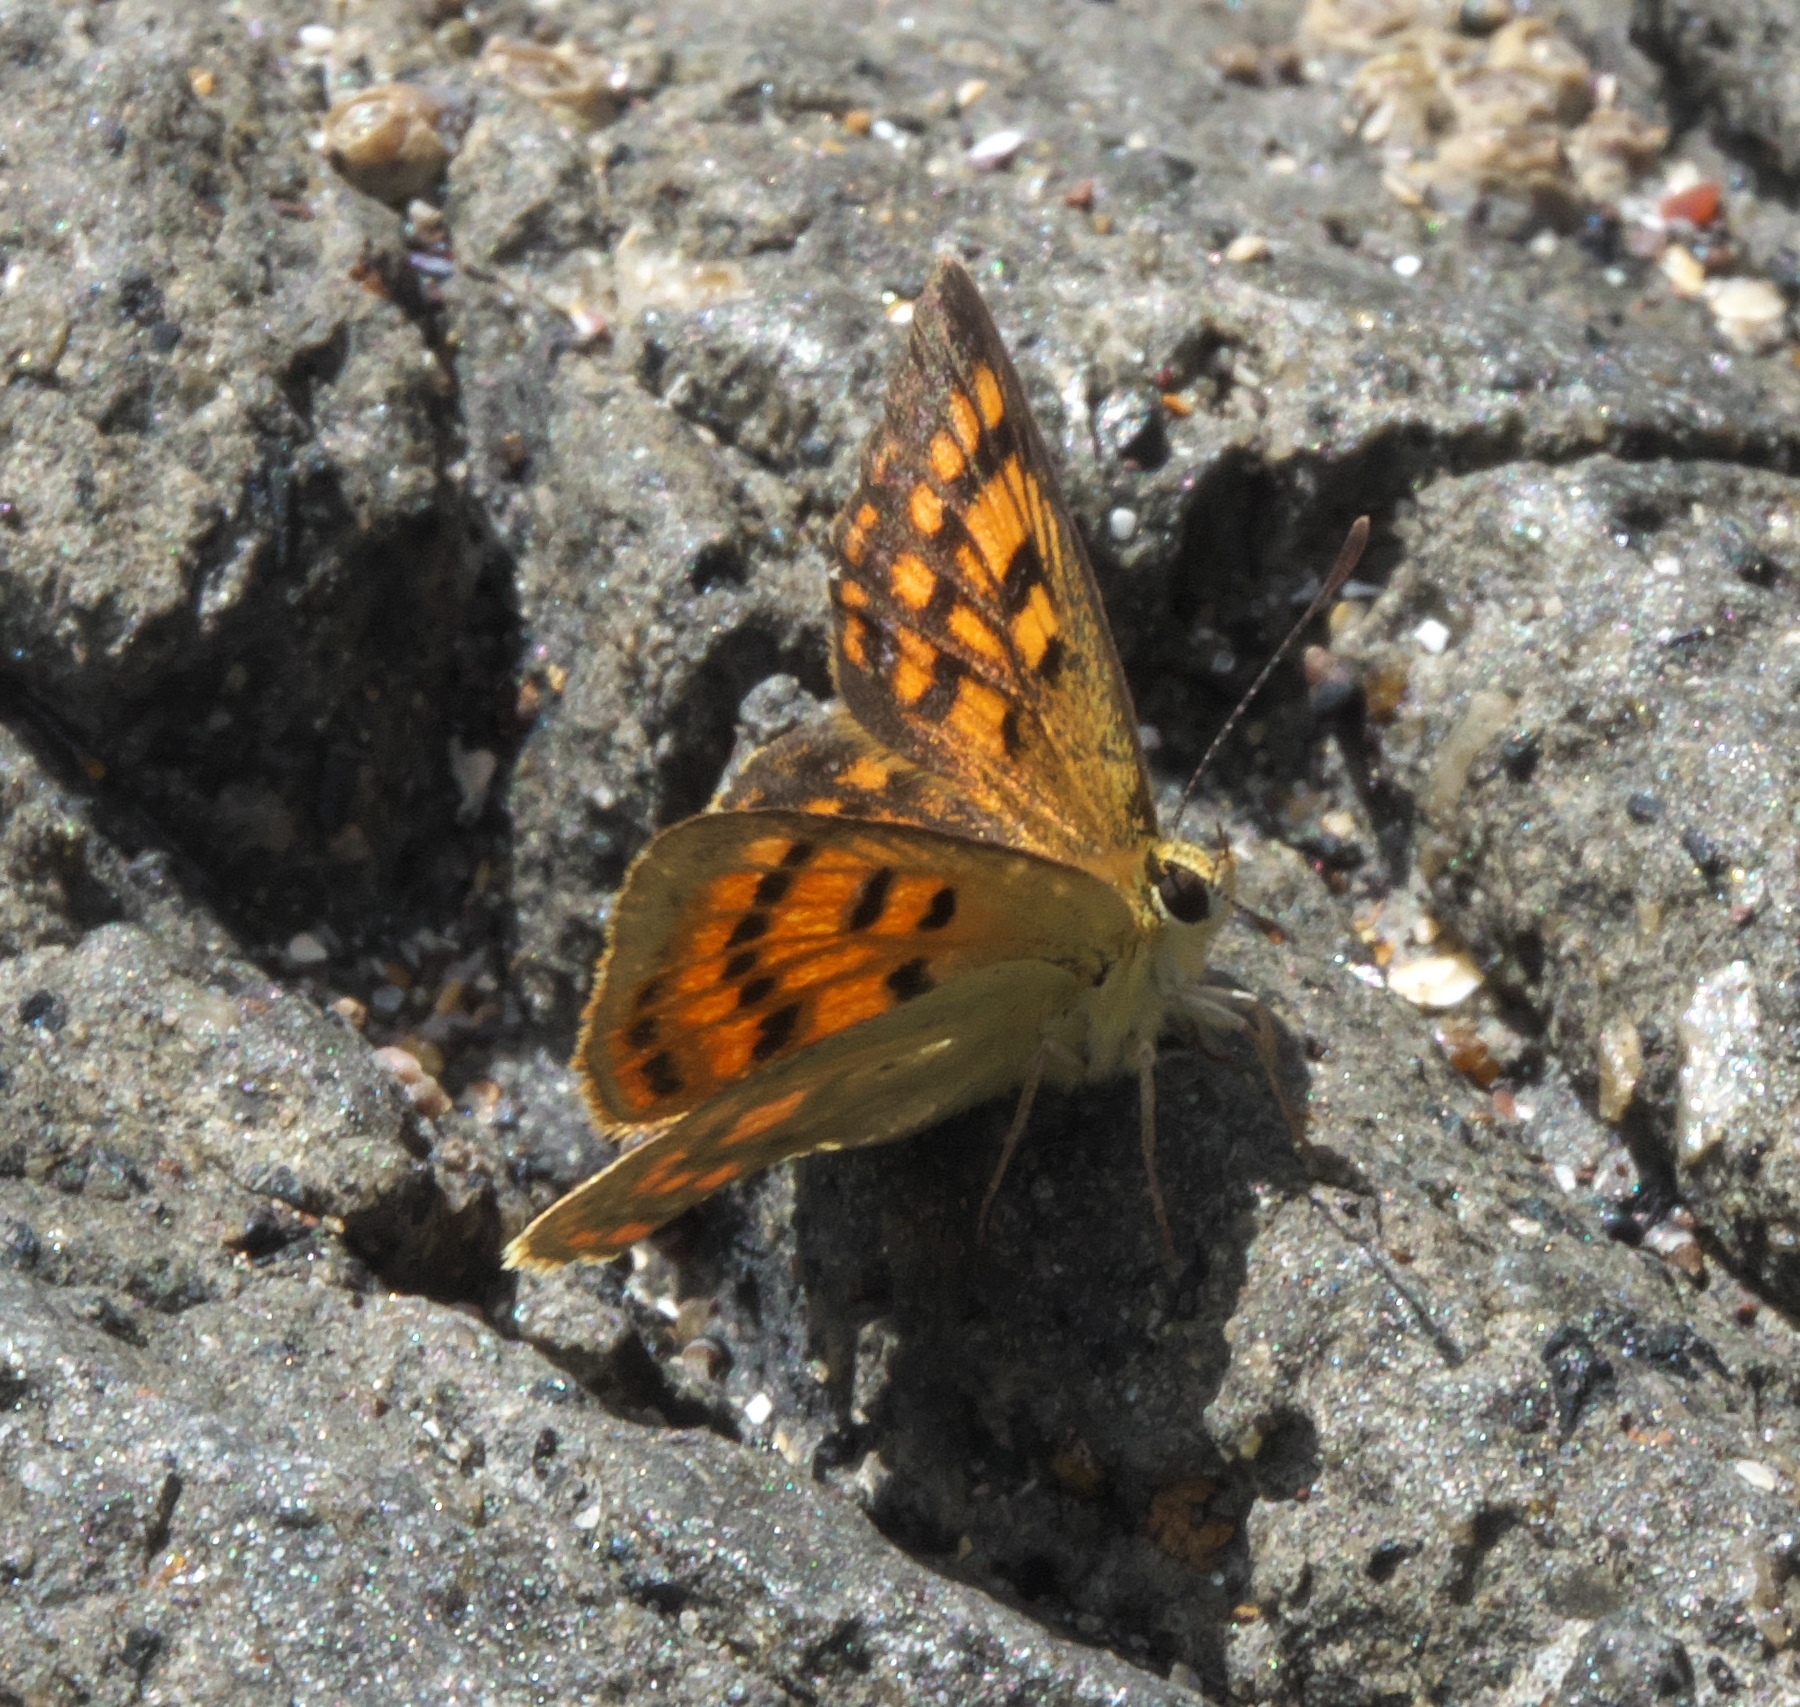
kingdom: Animalia
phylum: Arthropoda
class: Insecta
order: Lepidoptera
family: Lycaenidae
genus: Lycaena
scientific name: Lycaena
